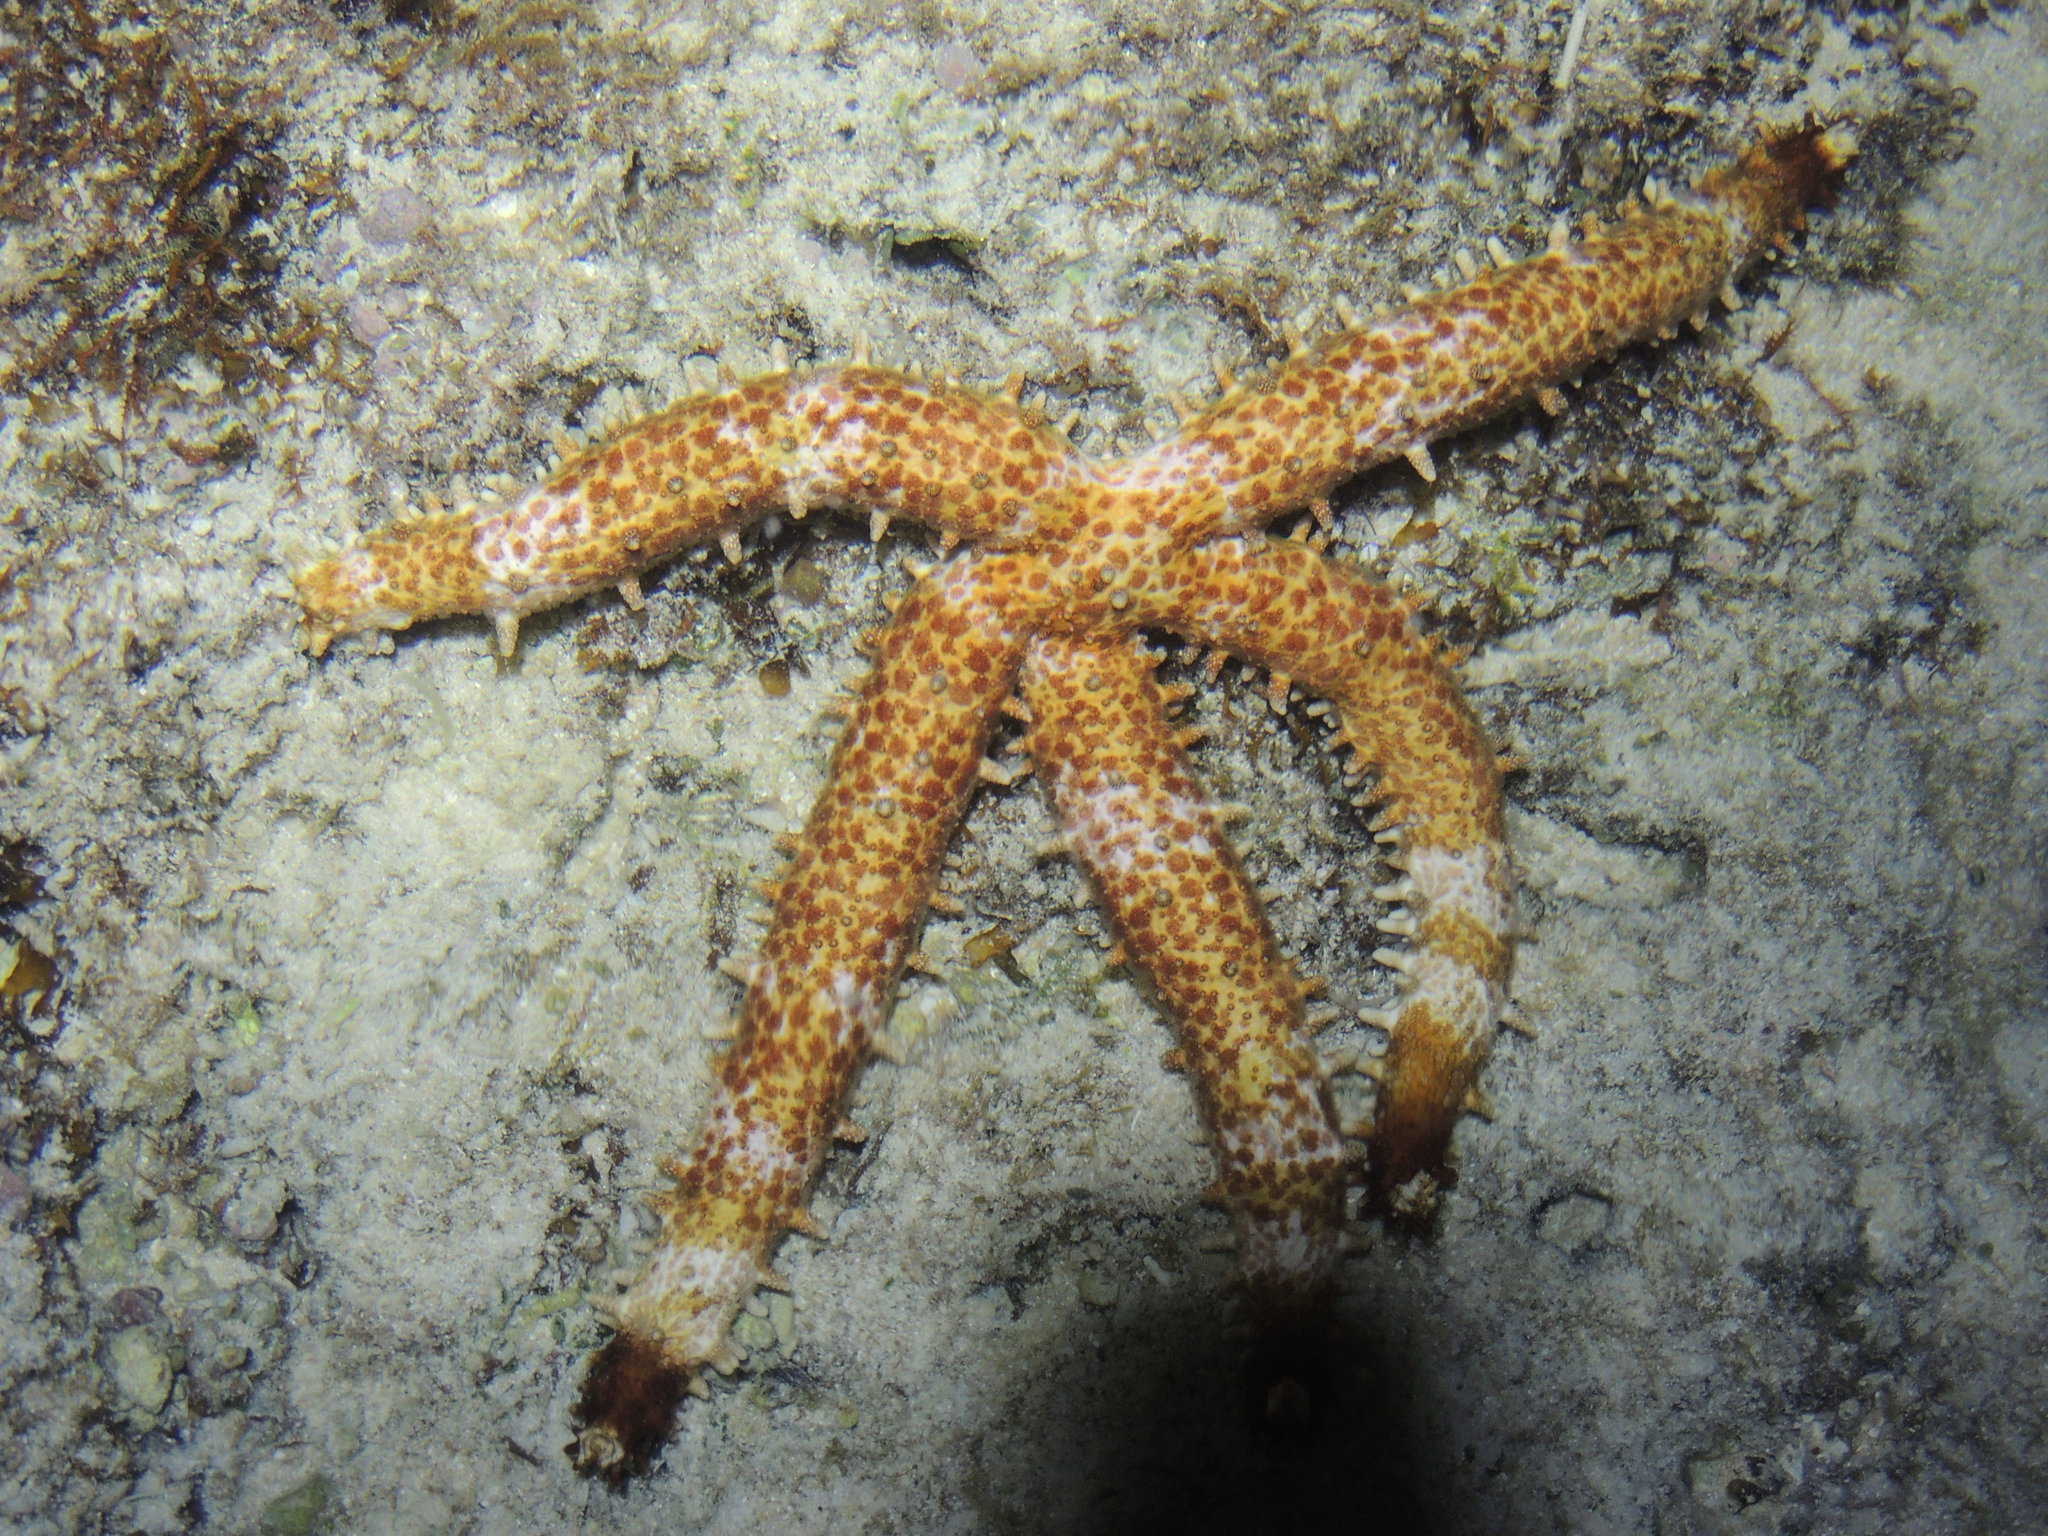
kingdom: Animalia
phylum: Echinodermata
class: Asteroidea
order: Valvatida
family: Mithrodiidae
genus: Mithrodia
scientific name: Mithrodia clavigera
